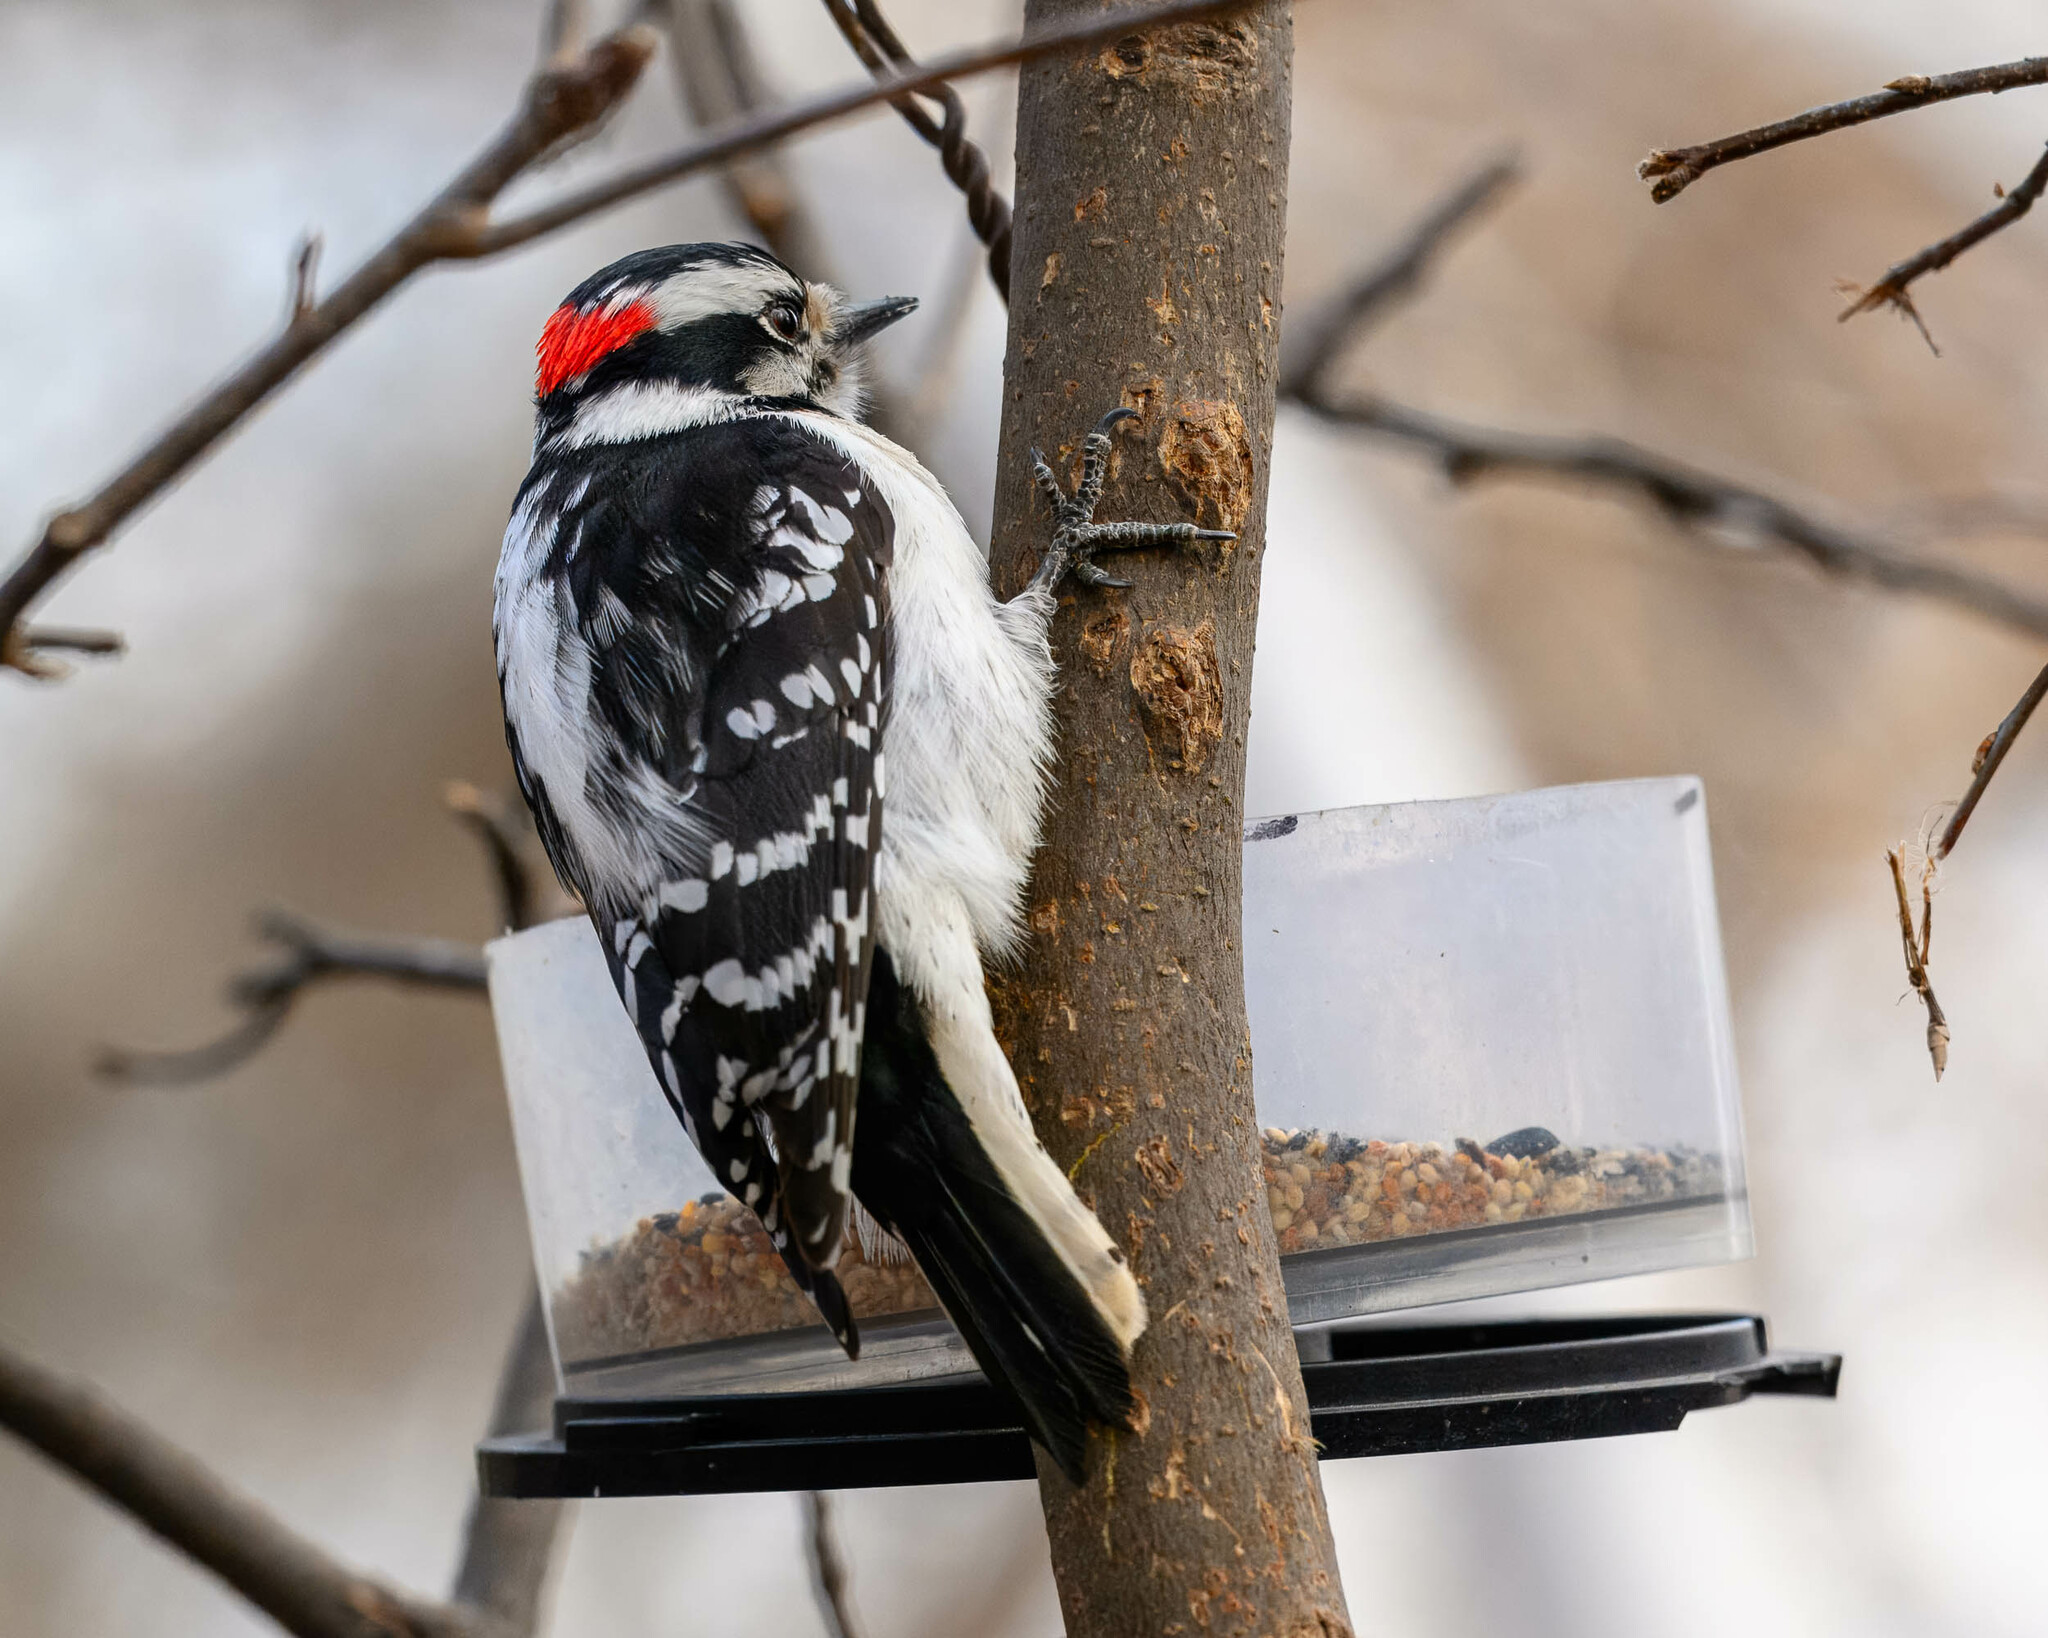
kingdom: Animalia
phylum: Chordata
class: Aves
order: Piciformes
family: Picidae
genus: Dryobates
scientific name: Dryobates pubescens
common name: Downy woodpecker
